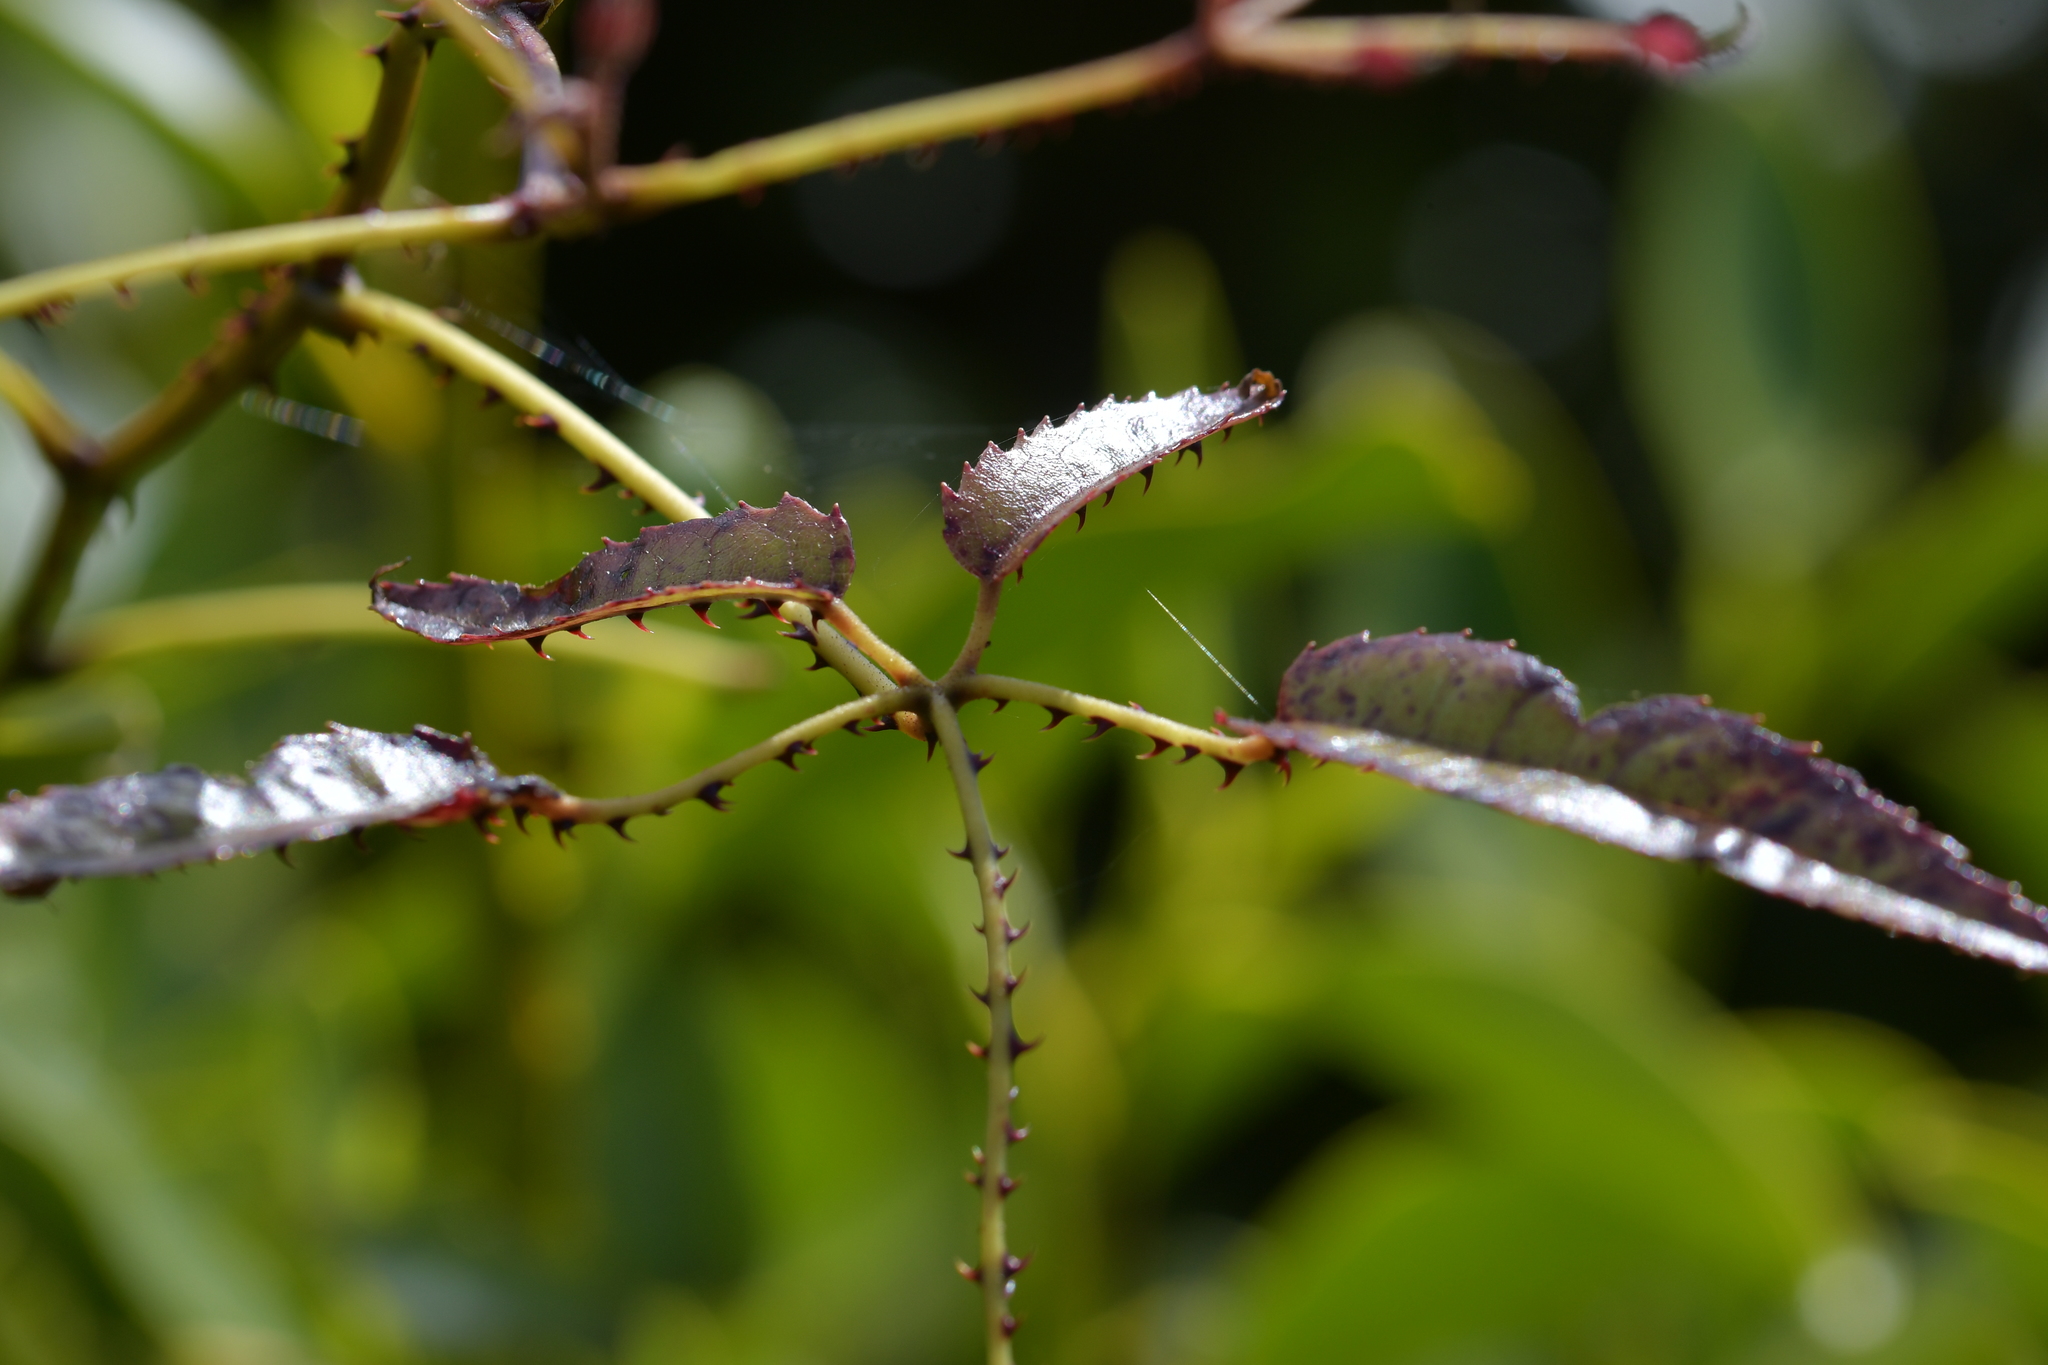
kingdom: Plantae
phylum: Tracheophyta
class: Magnoliopsida
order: Rosales
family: Rosaceae
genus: Rubus
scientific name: Rubus cissoides
